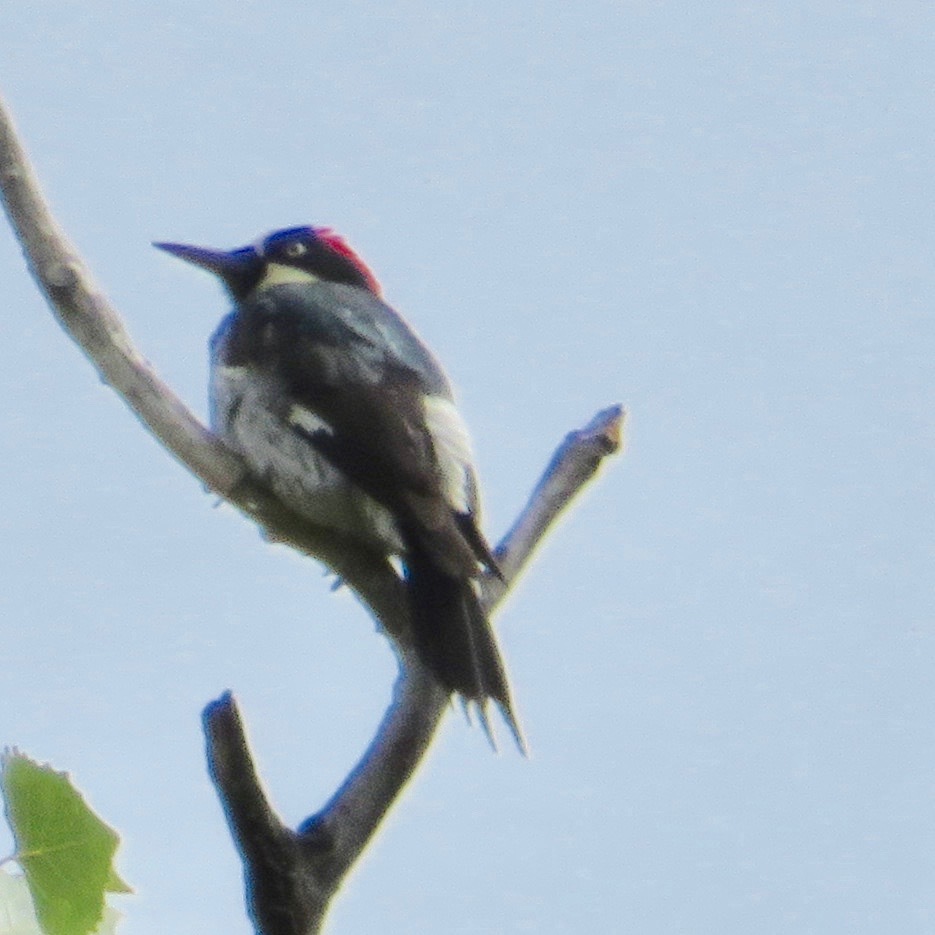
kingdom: Animalia
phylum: Chordata
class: Aves
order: Piciformes
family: Picidae
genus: Melanerpes
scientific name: Melanerpes formicivorus
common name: Acorn woodpecker
